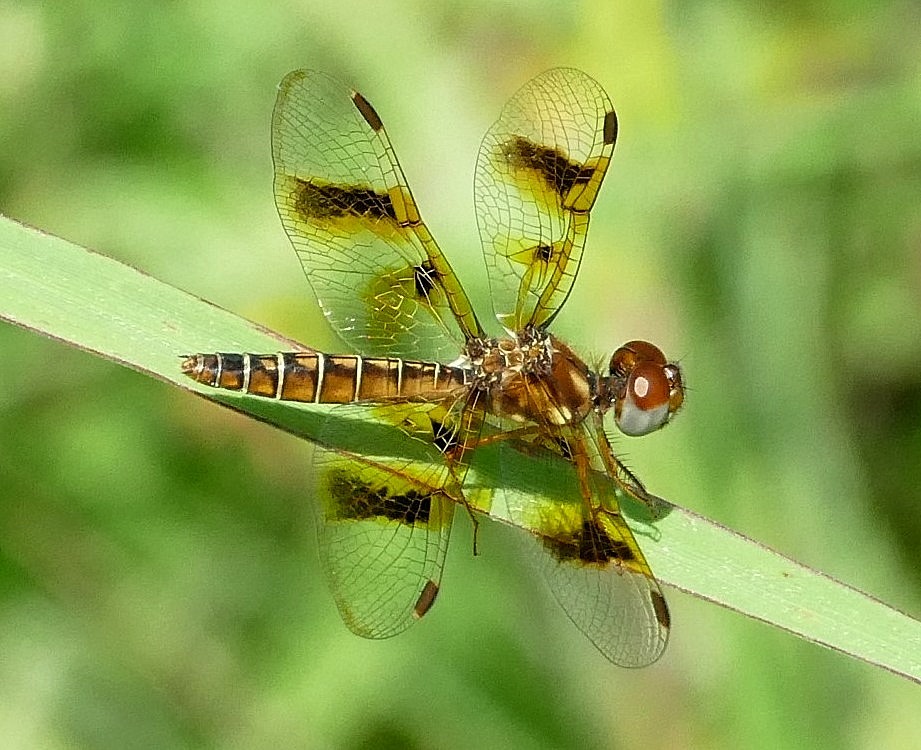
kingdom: Animalia
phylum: Arthropoda
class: Insecta
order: Odonata
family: Libellulidae
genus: Perithemis
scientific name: Perithemis tenera
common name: Eastern amberwing
